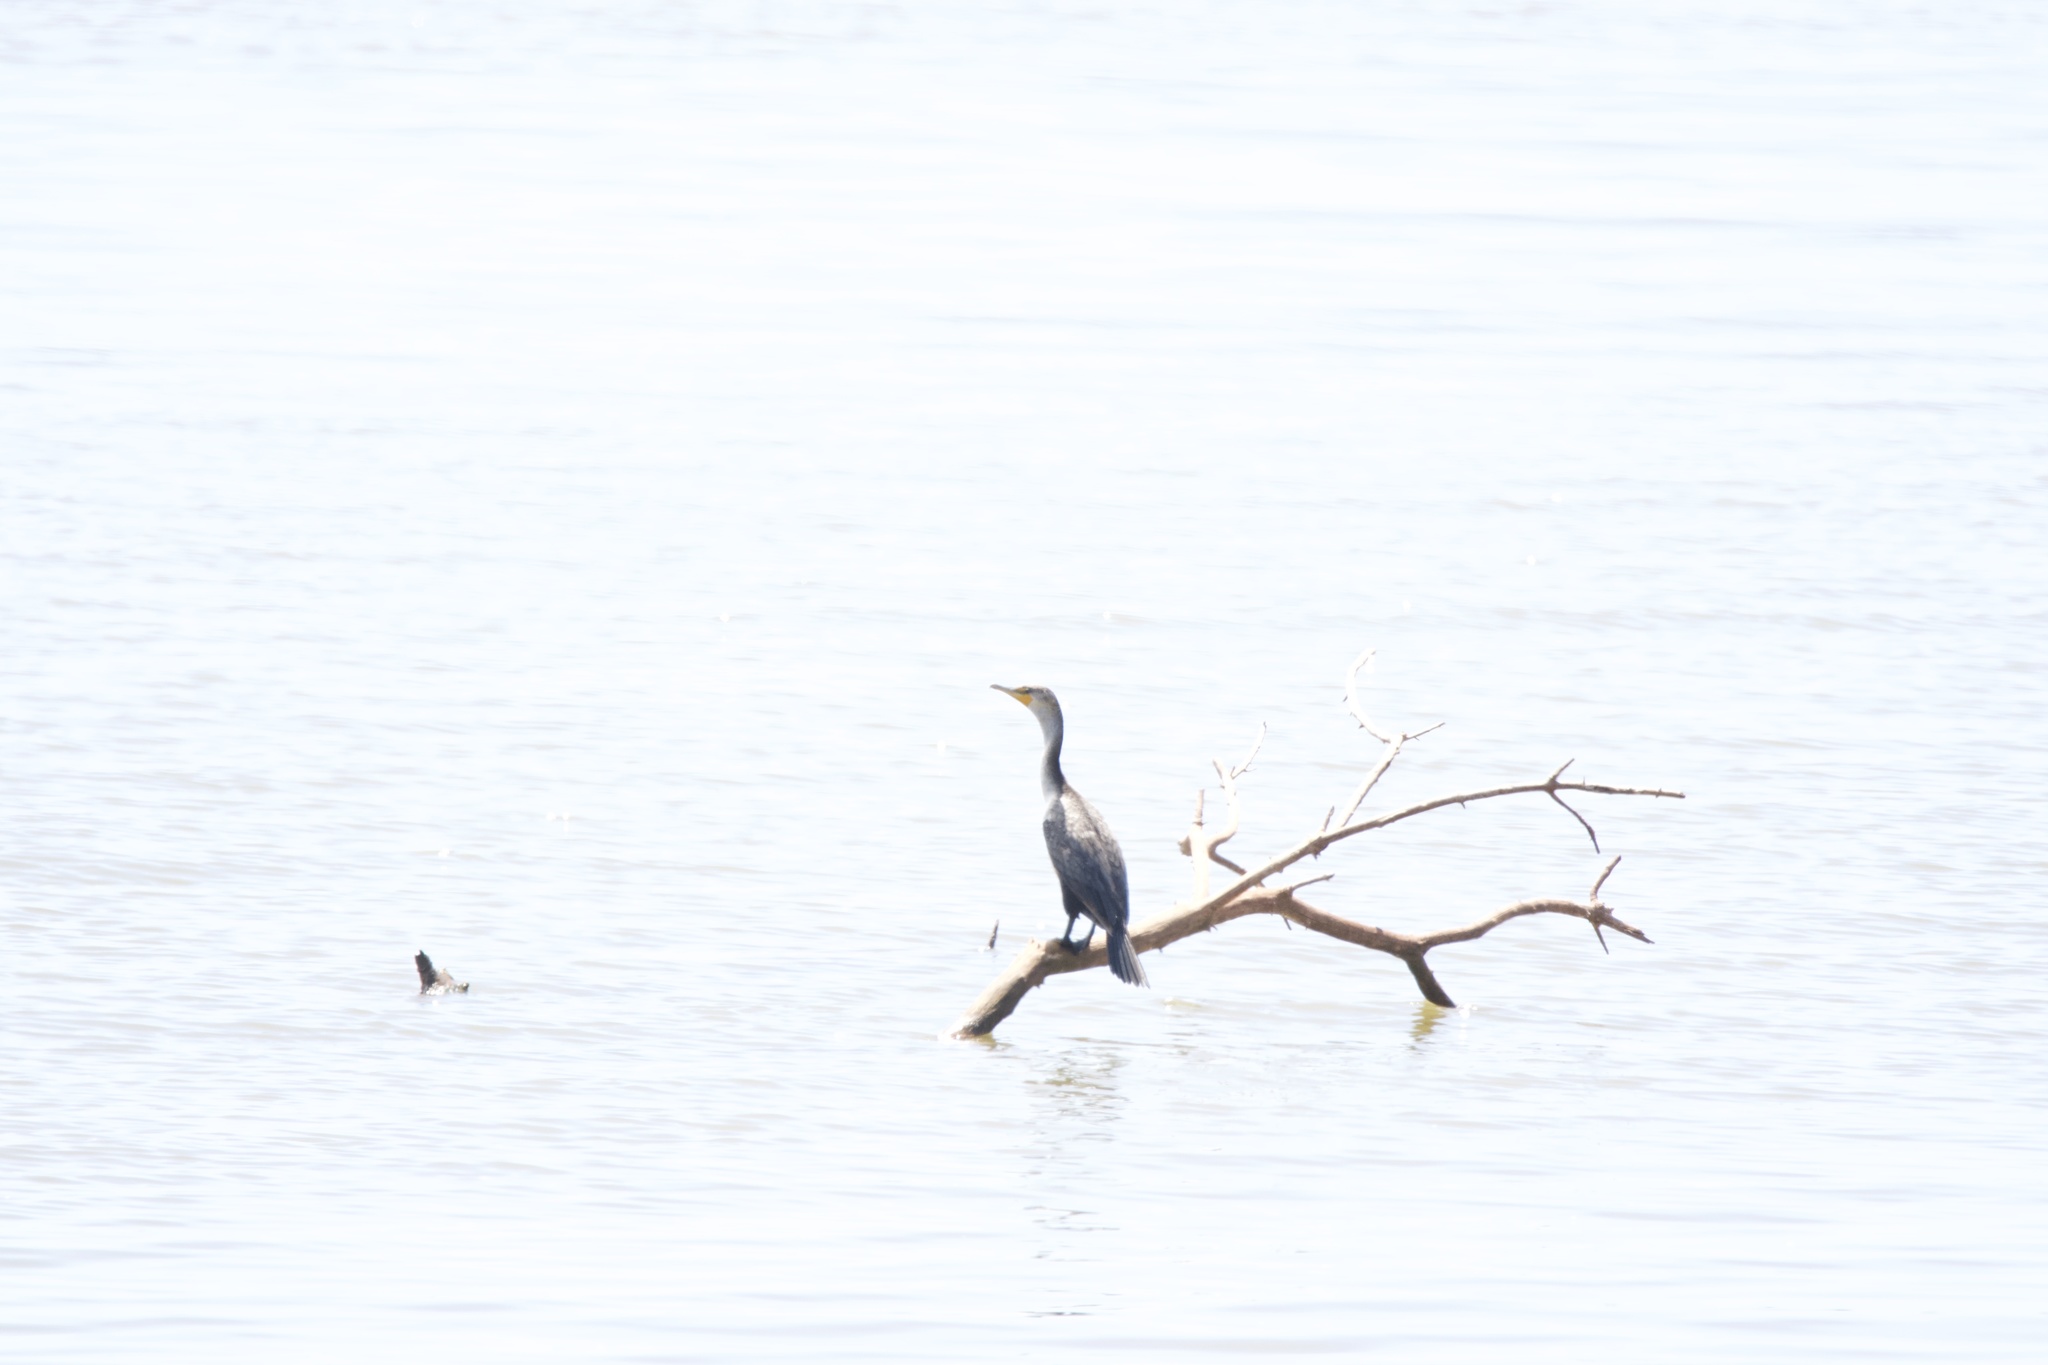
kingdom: Animalia
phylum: Chordata
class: Aves
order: Suliformes
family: Phalacrocoracidae
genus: Phalacrocorax
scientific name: Phalacrocorax auritus
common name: Double-crested cormorant
